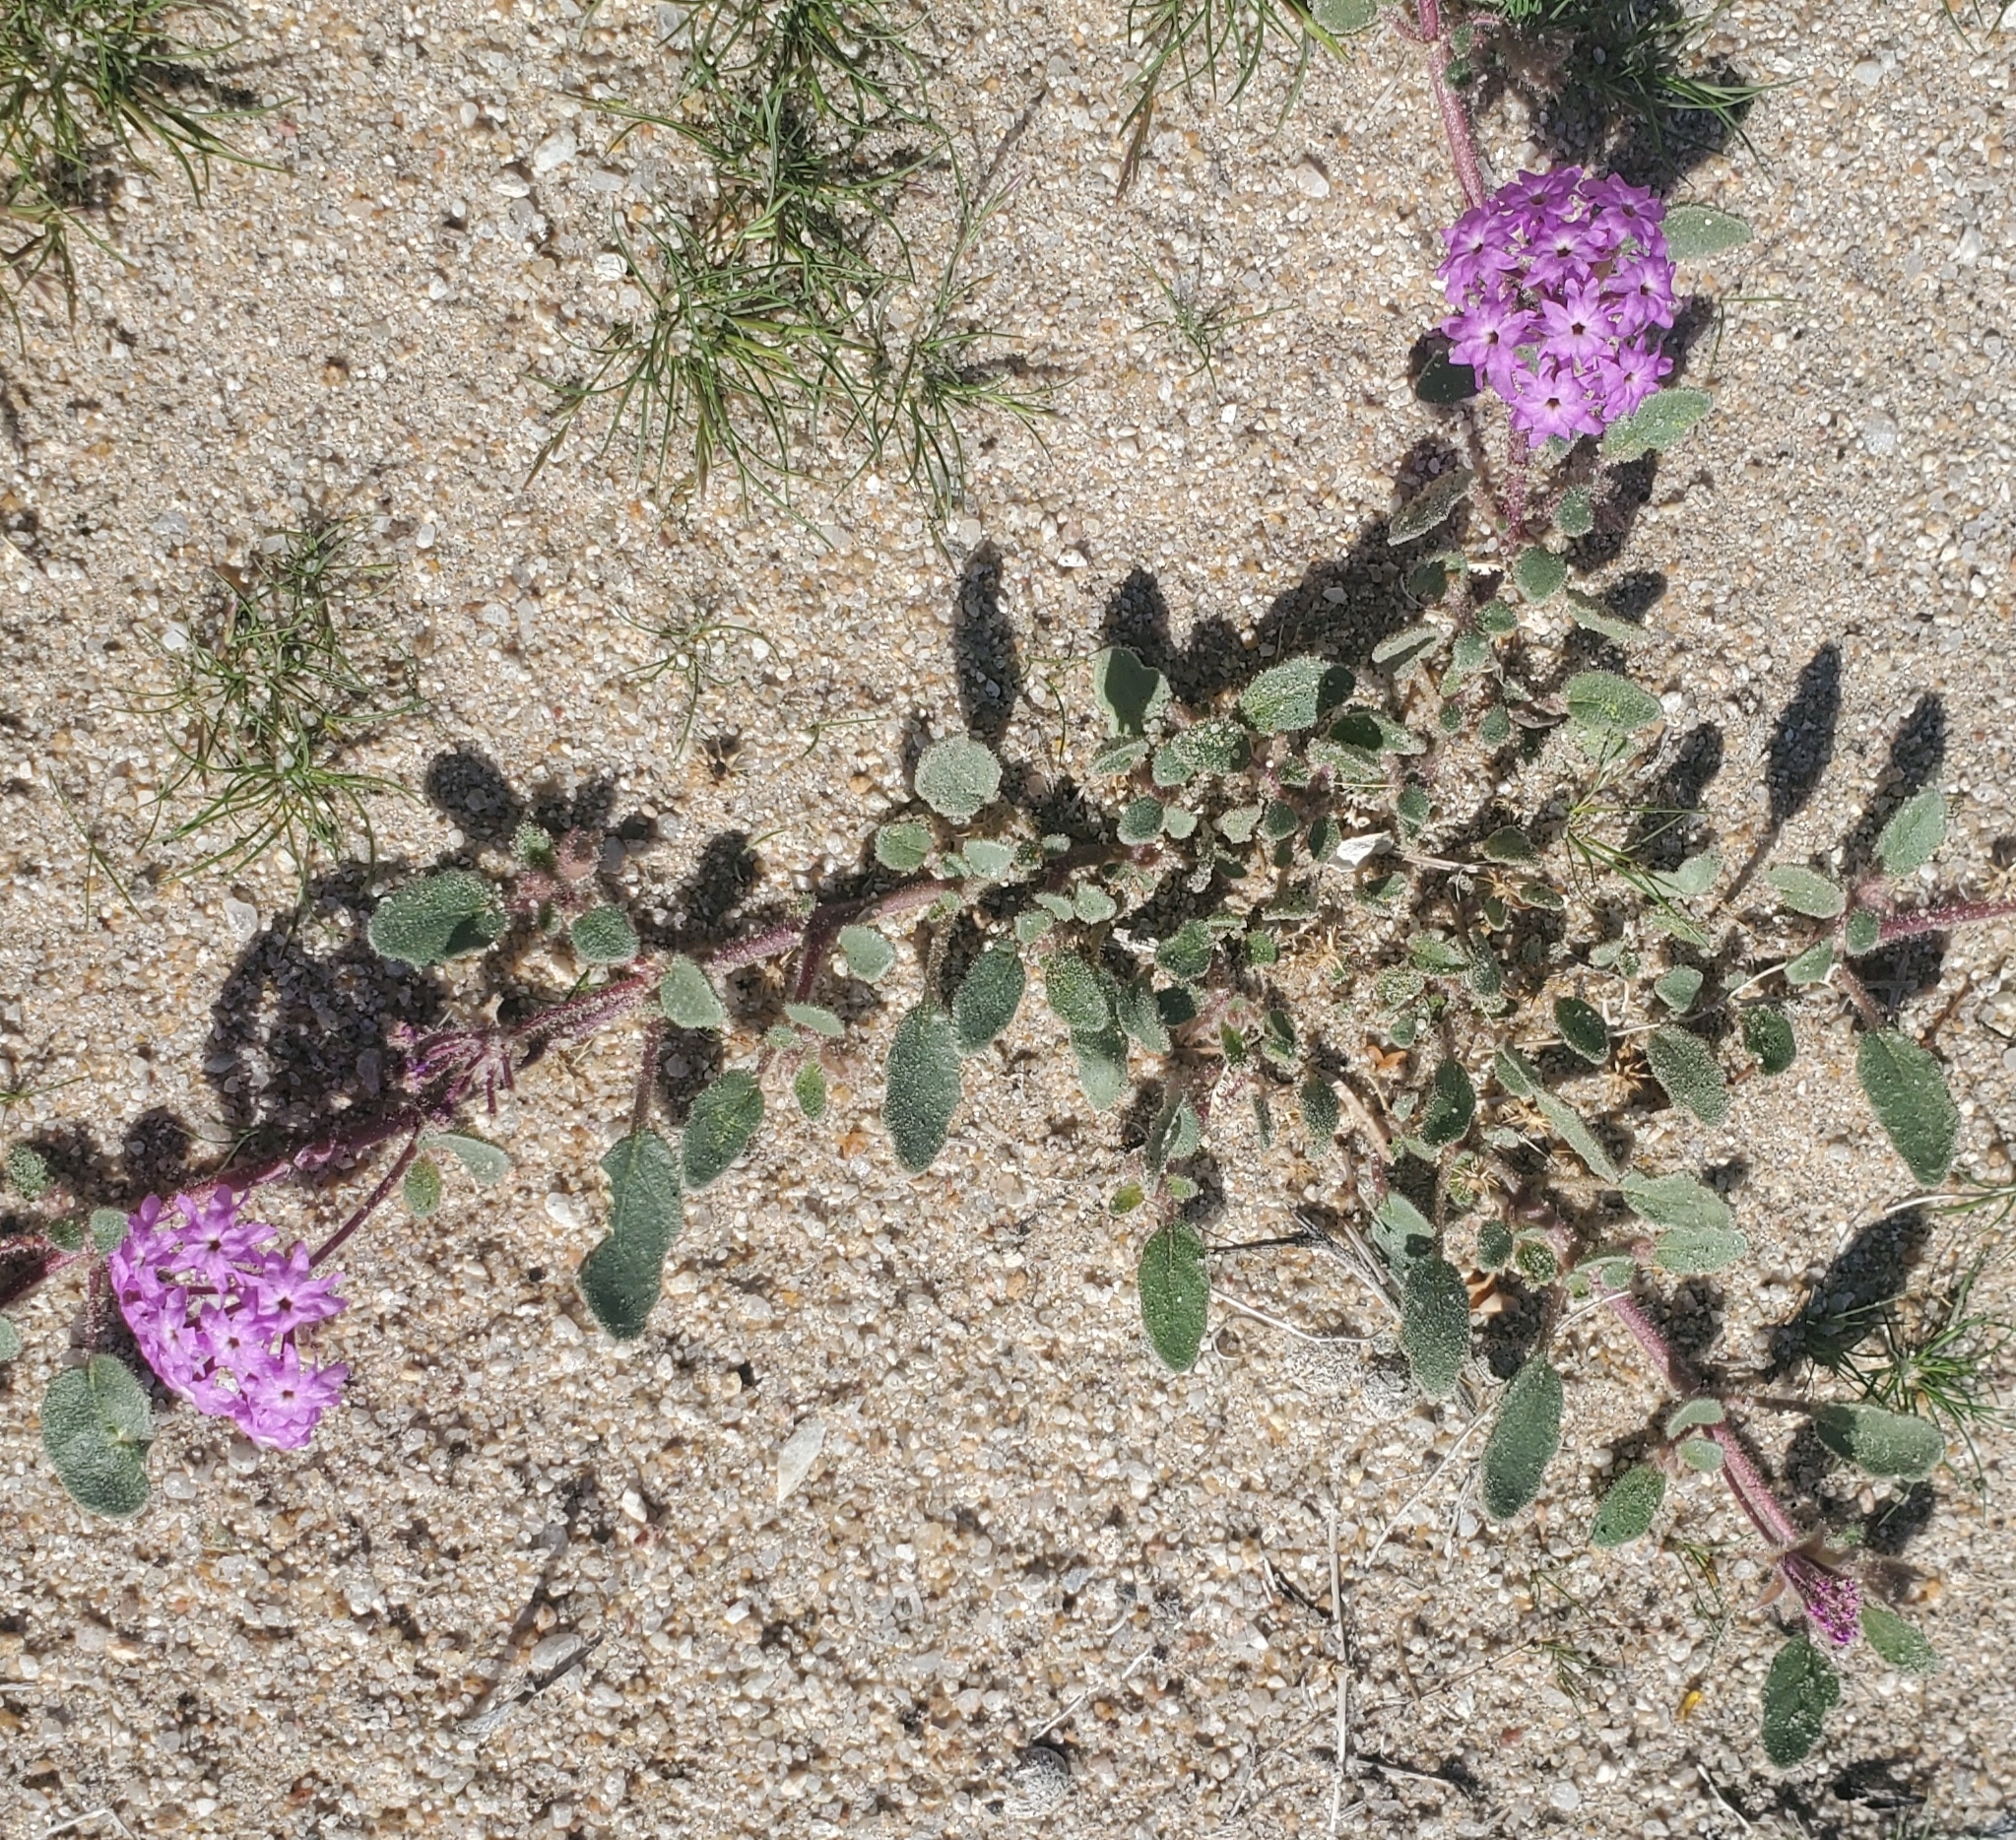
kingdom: Plantae
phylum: Tracheophyta
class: Magnoliopsida
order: Caryophyllales
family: Nyctaginaceae
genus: Abronia
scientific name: Abronia villosa
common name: Desert sand-verbena
